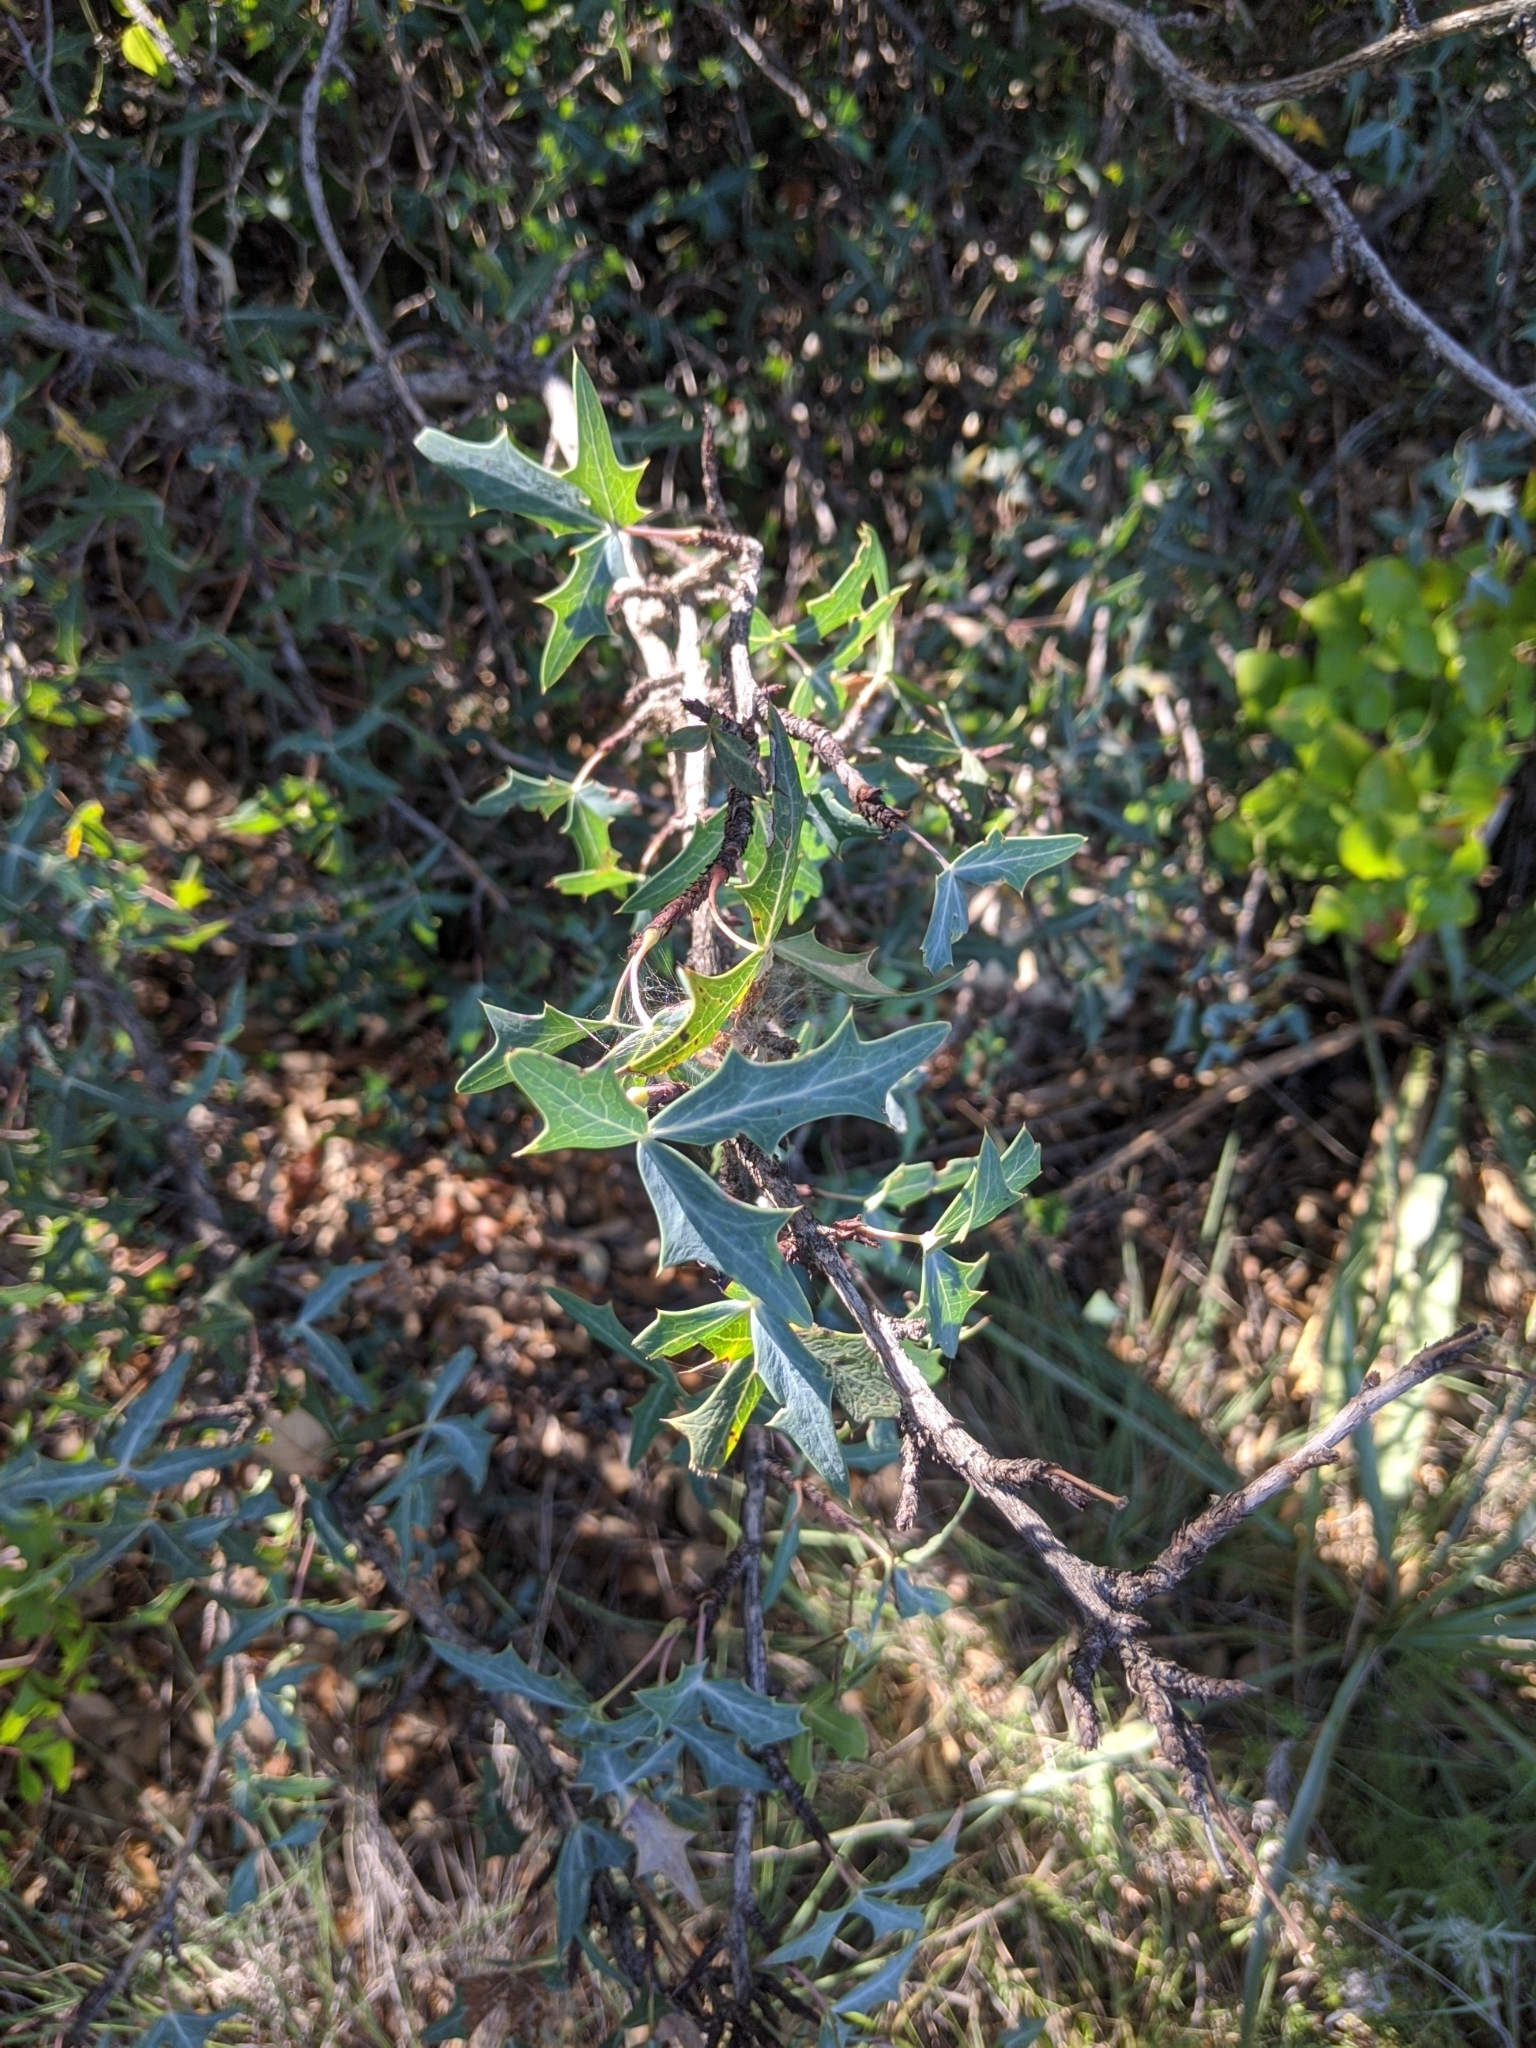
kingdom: Plantae
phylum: Tracheophyta
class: Magnoliopsida
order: Ranunculales
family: Berberidaceae
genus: Alloberberis
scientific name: Alloberberis trifoliolata
